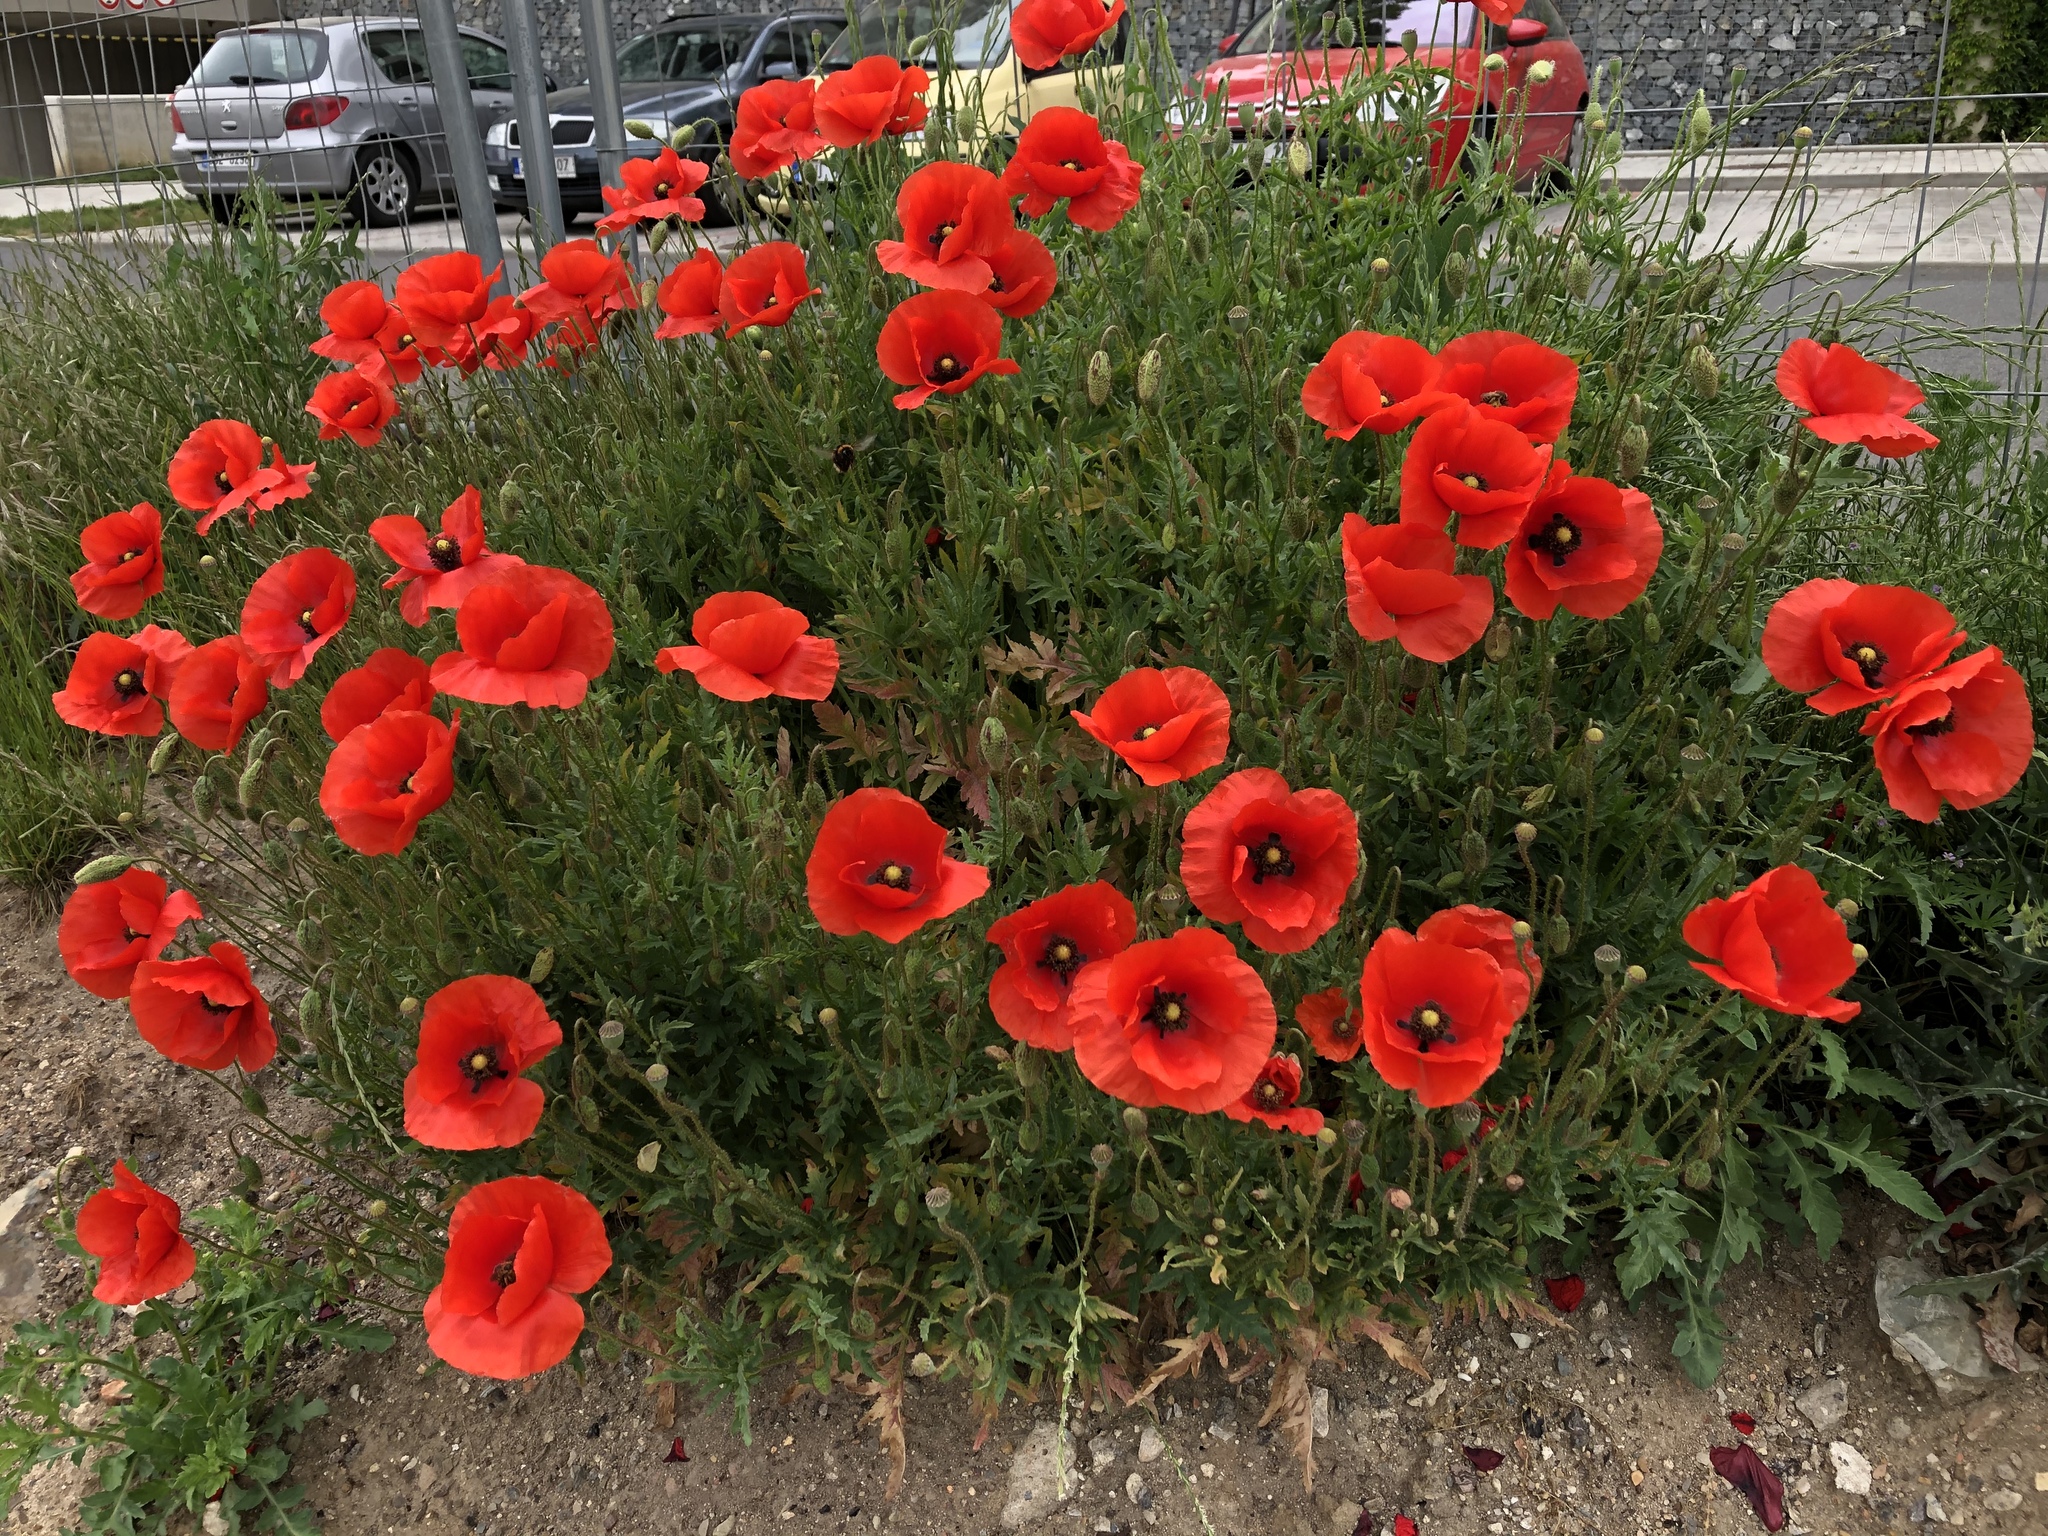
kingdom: Plantae
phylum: Tracheophyta
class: Magnoliopsida
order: Ranunculales
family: Papaveraceae
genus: Papaver
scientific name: Papaver rhoeas
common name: Corn poppy
